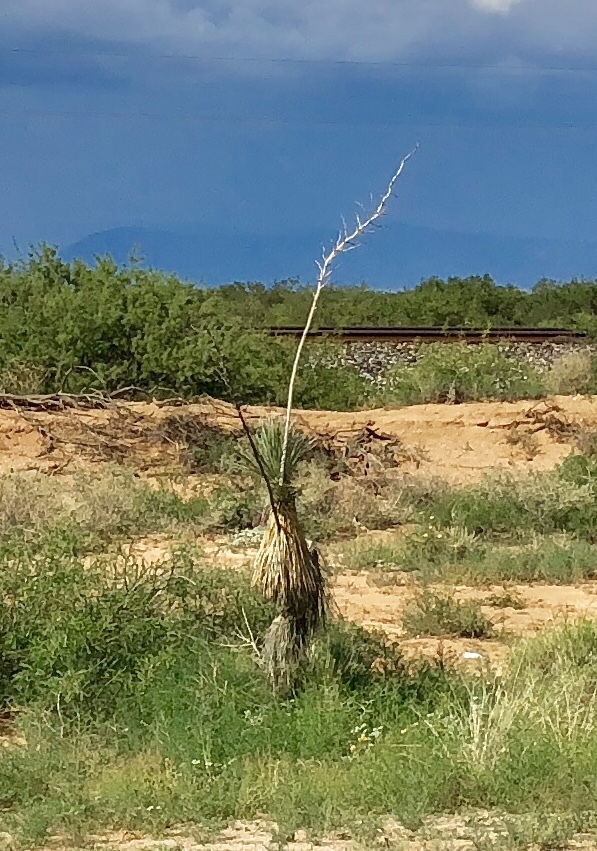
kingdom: Plantae
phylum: Tracheophyta
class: Liliopsida
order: Asparagales
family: Asparagaceae
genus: Yucca
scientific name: Yucca elata
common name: Palmella
